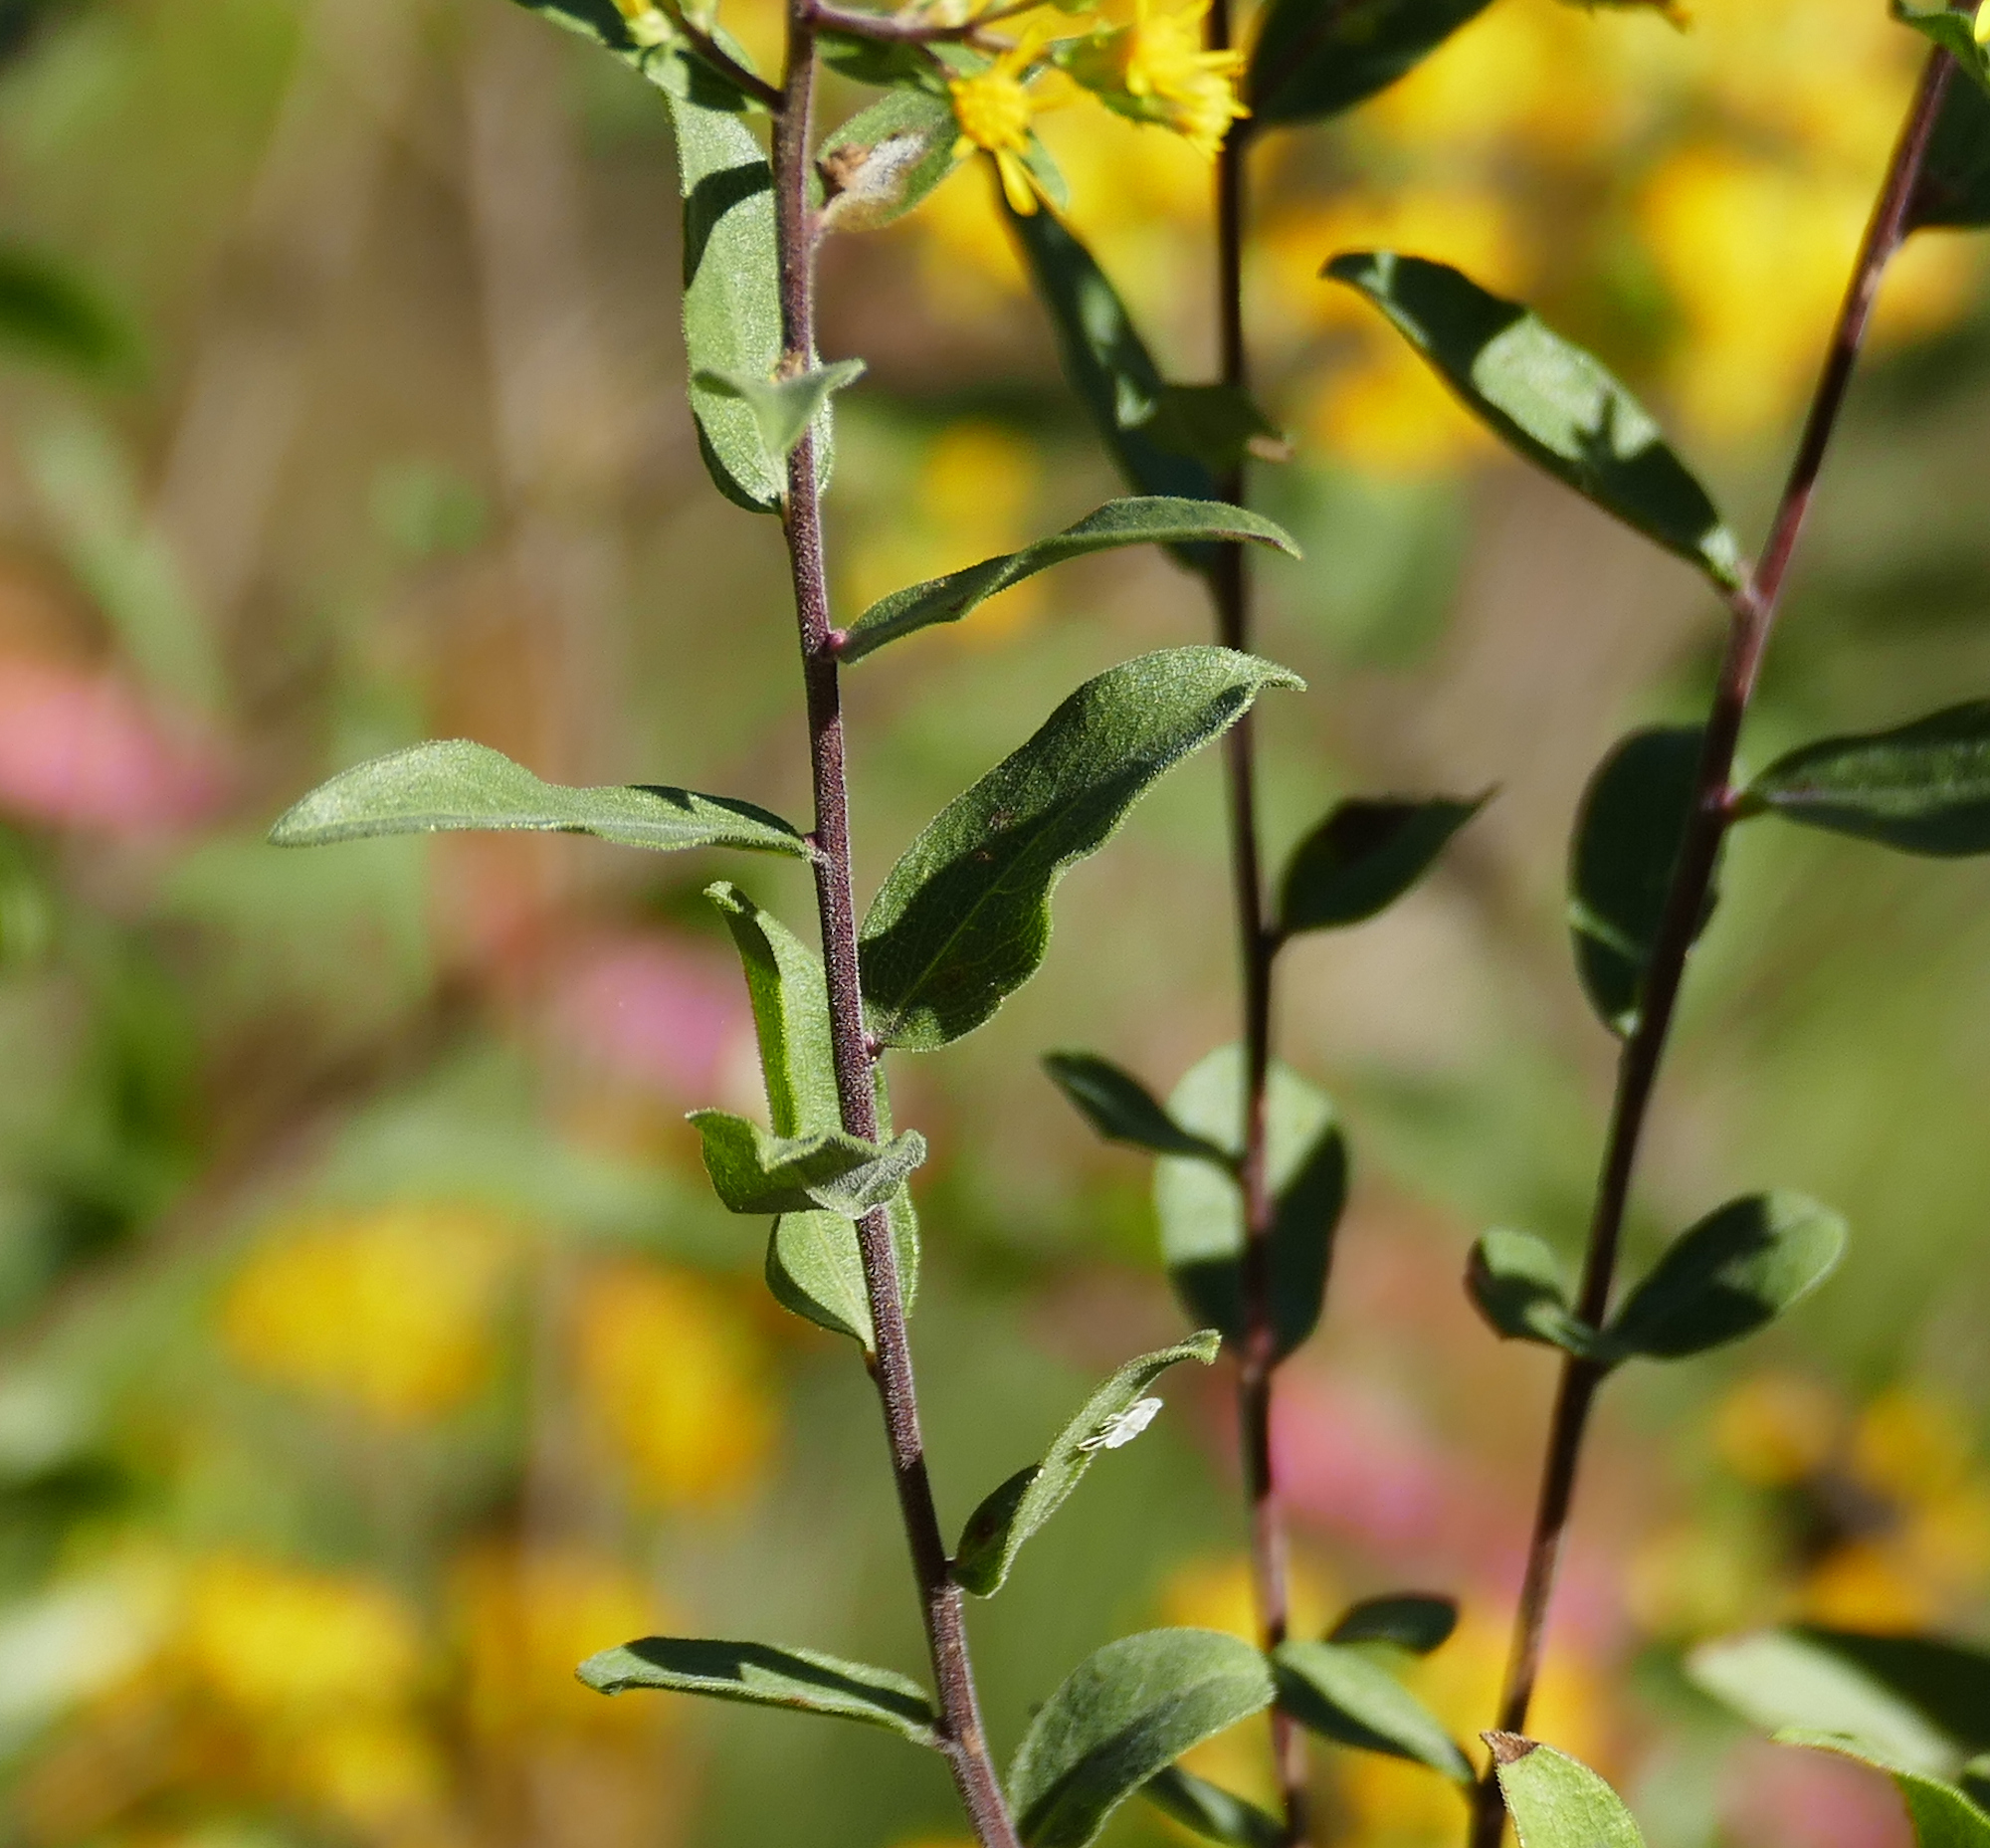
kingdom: Plantae
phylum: Tracheophyta
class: Magnoliopsida
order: Asterales
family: Asteraceae
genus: Solidago
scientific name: Solidago wrightii
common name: Wright's goldenrod
